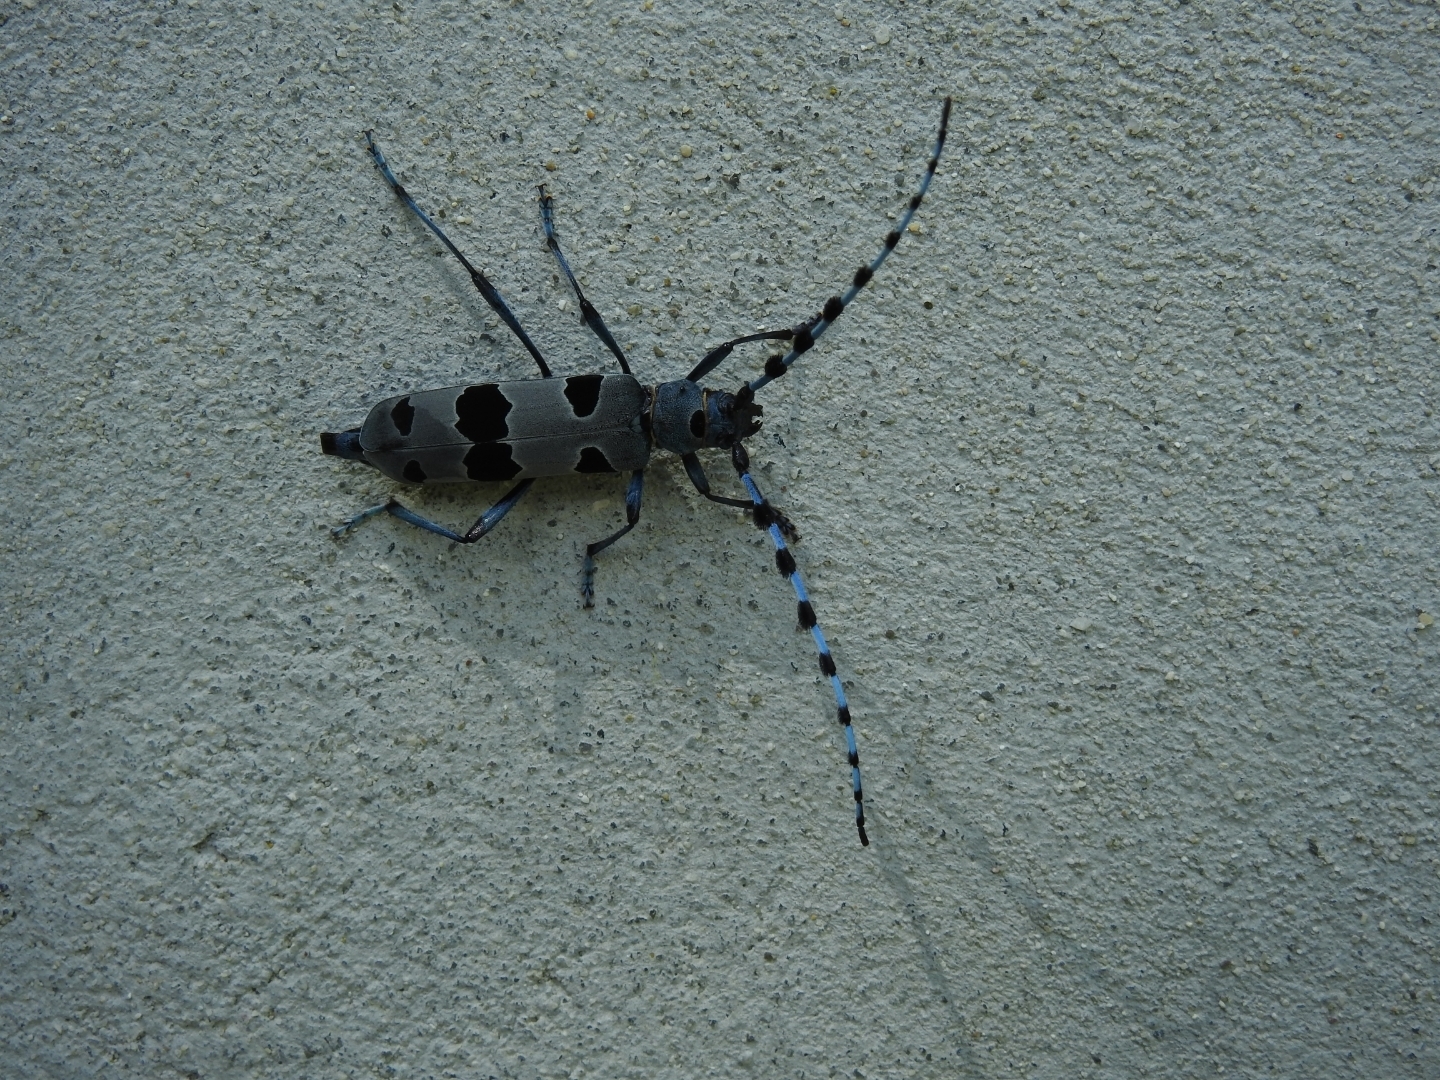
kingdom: Animalia
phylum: Arthropoda
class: Insecta
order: Coleoptera
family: Cerambycidae
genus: Rosalia
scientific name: Rosalia alpina
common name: Rosalia longicorn
